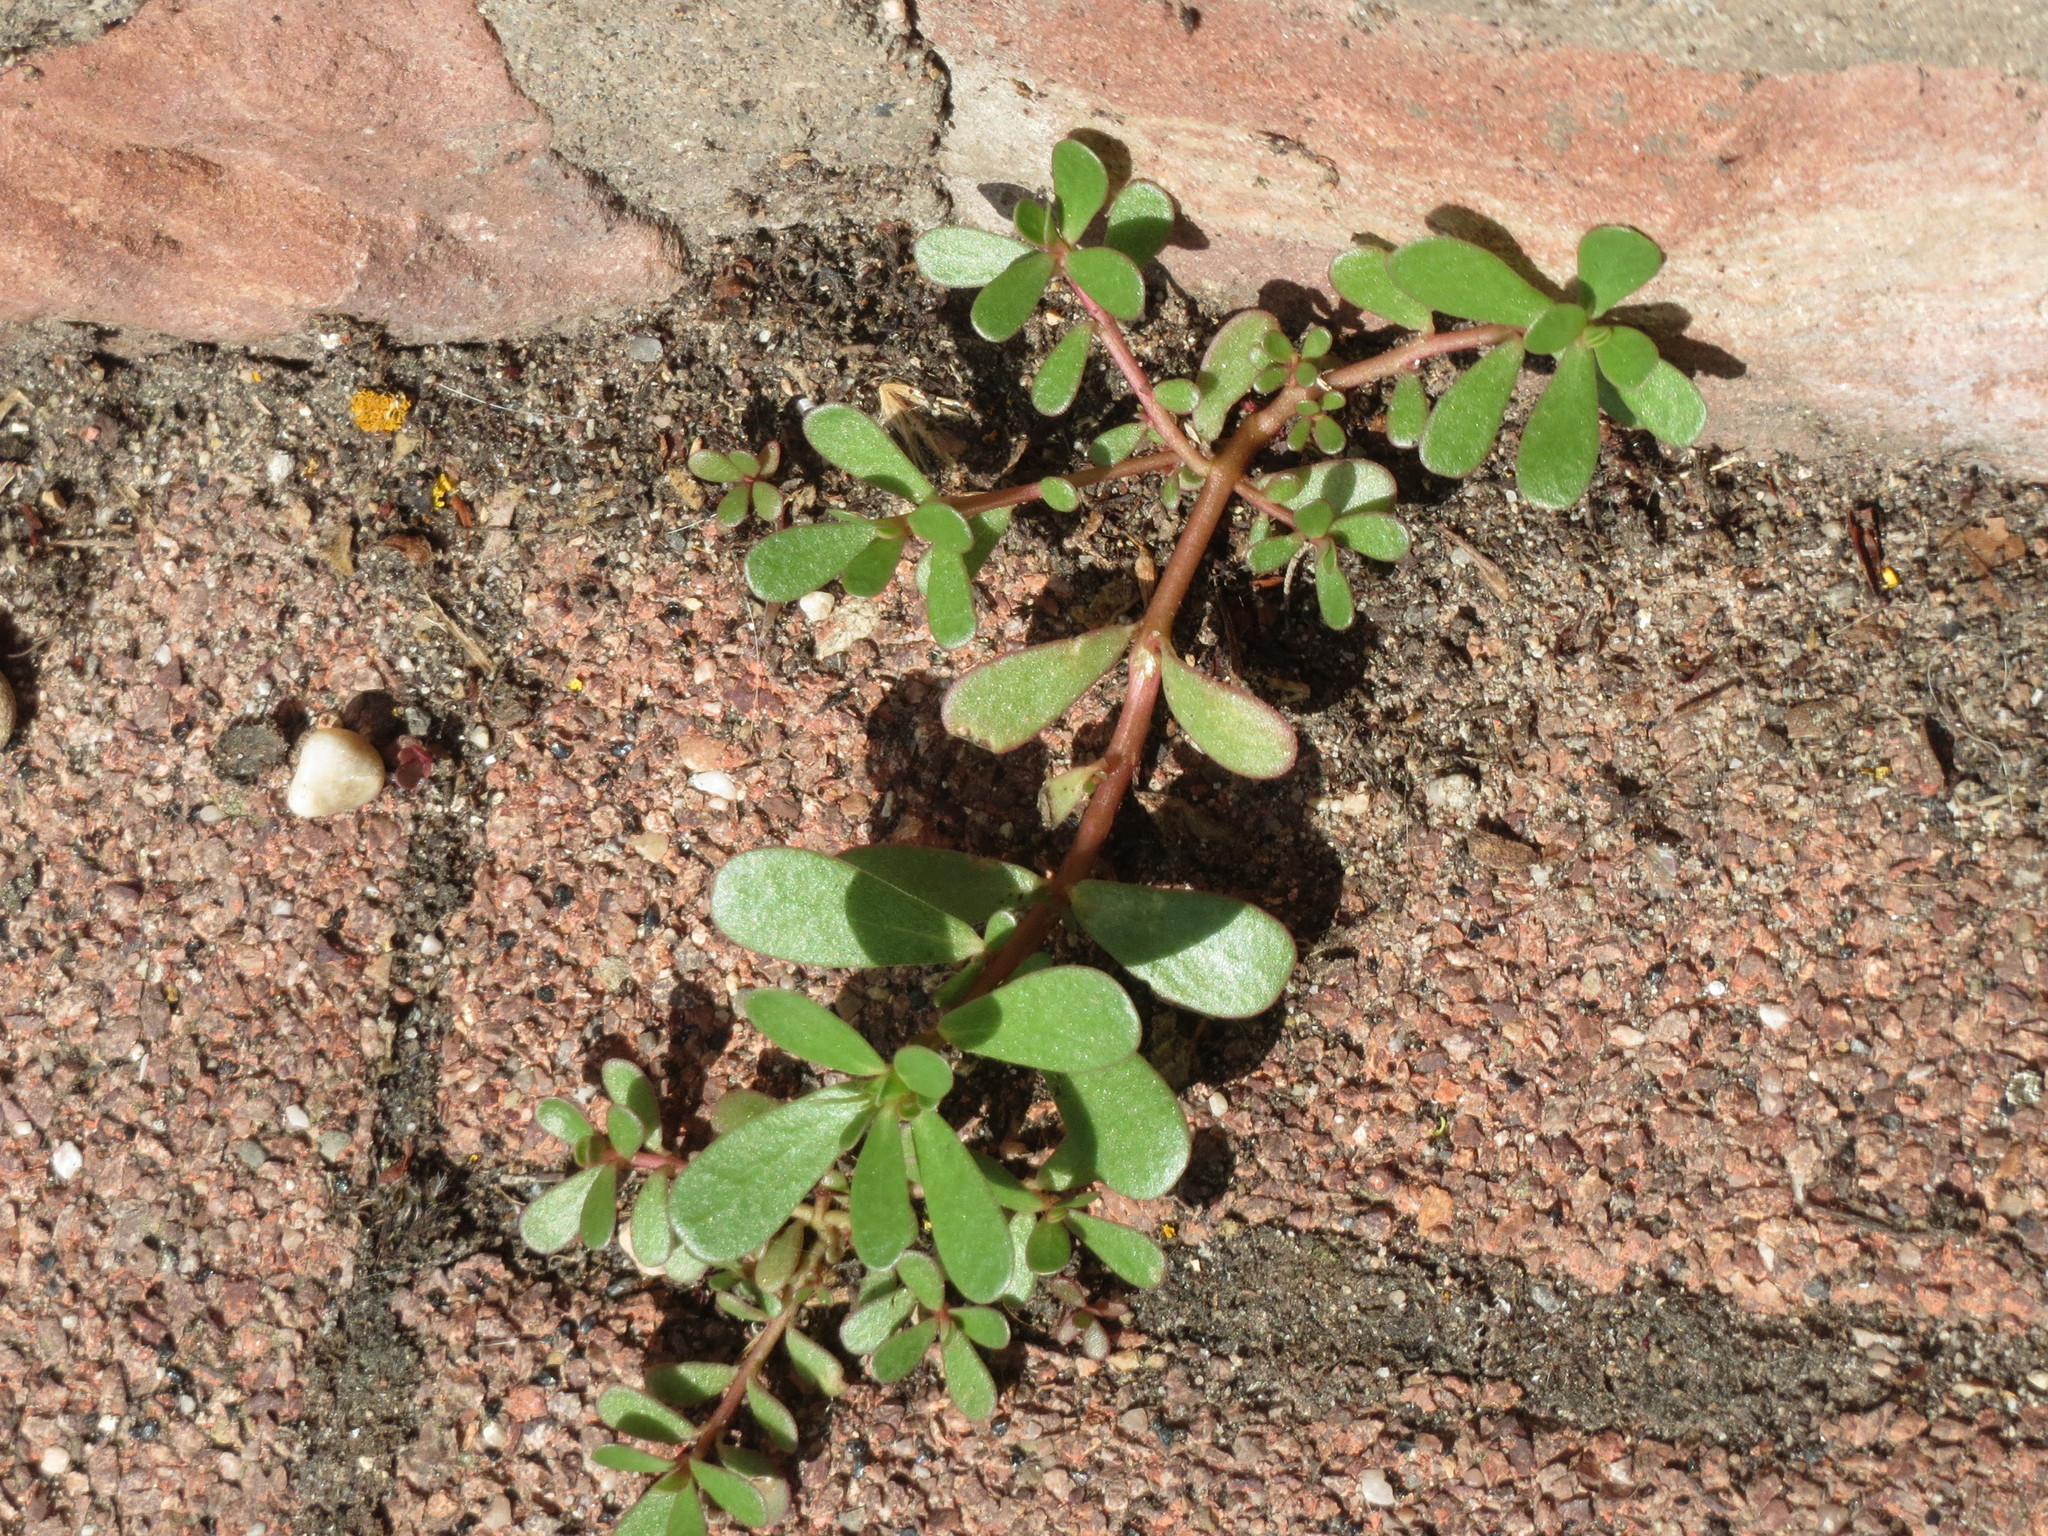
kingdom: Plantae
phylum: Tracheophyta
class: Magnoliopsida
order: Caryophyllales
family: Portulacaceae
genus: Portulaca
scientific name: Portulaca oleracea
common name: Common purslane
